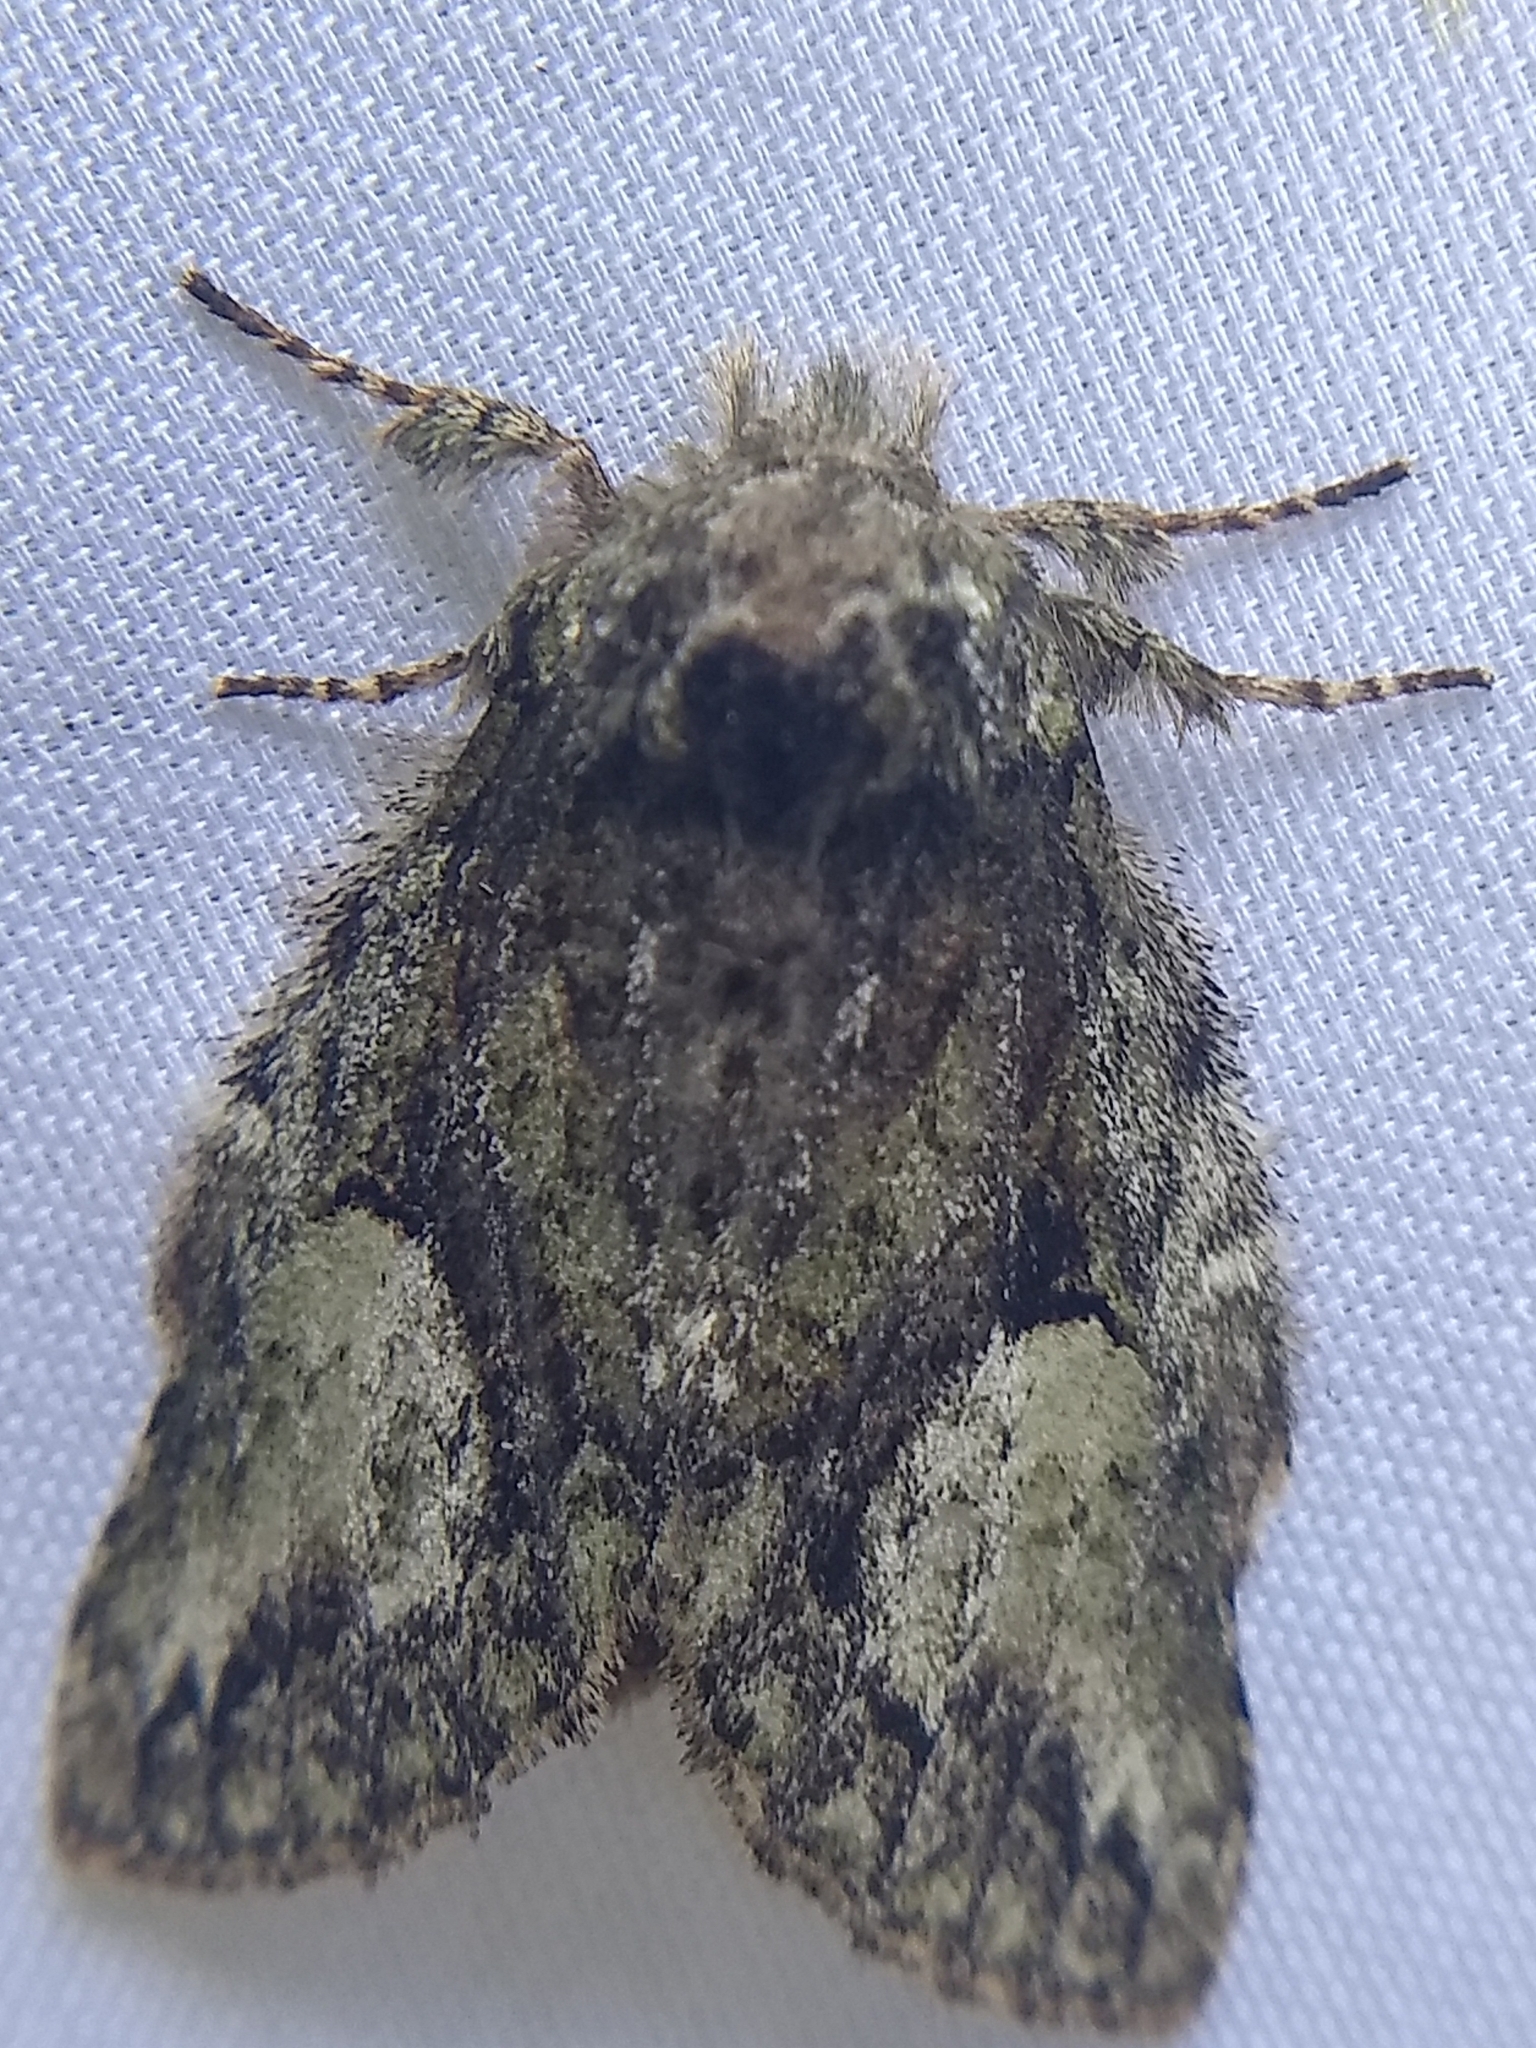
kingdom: Animalia
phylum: Arthropoda
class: Insecta
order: Lepidoptera
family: Notodontidae
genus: Heterocampa
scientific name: Heterocampa
